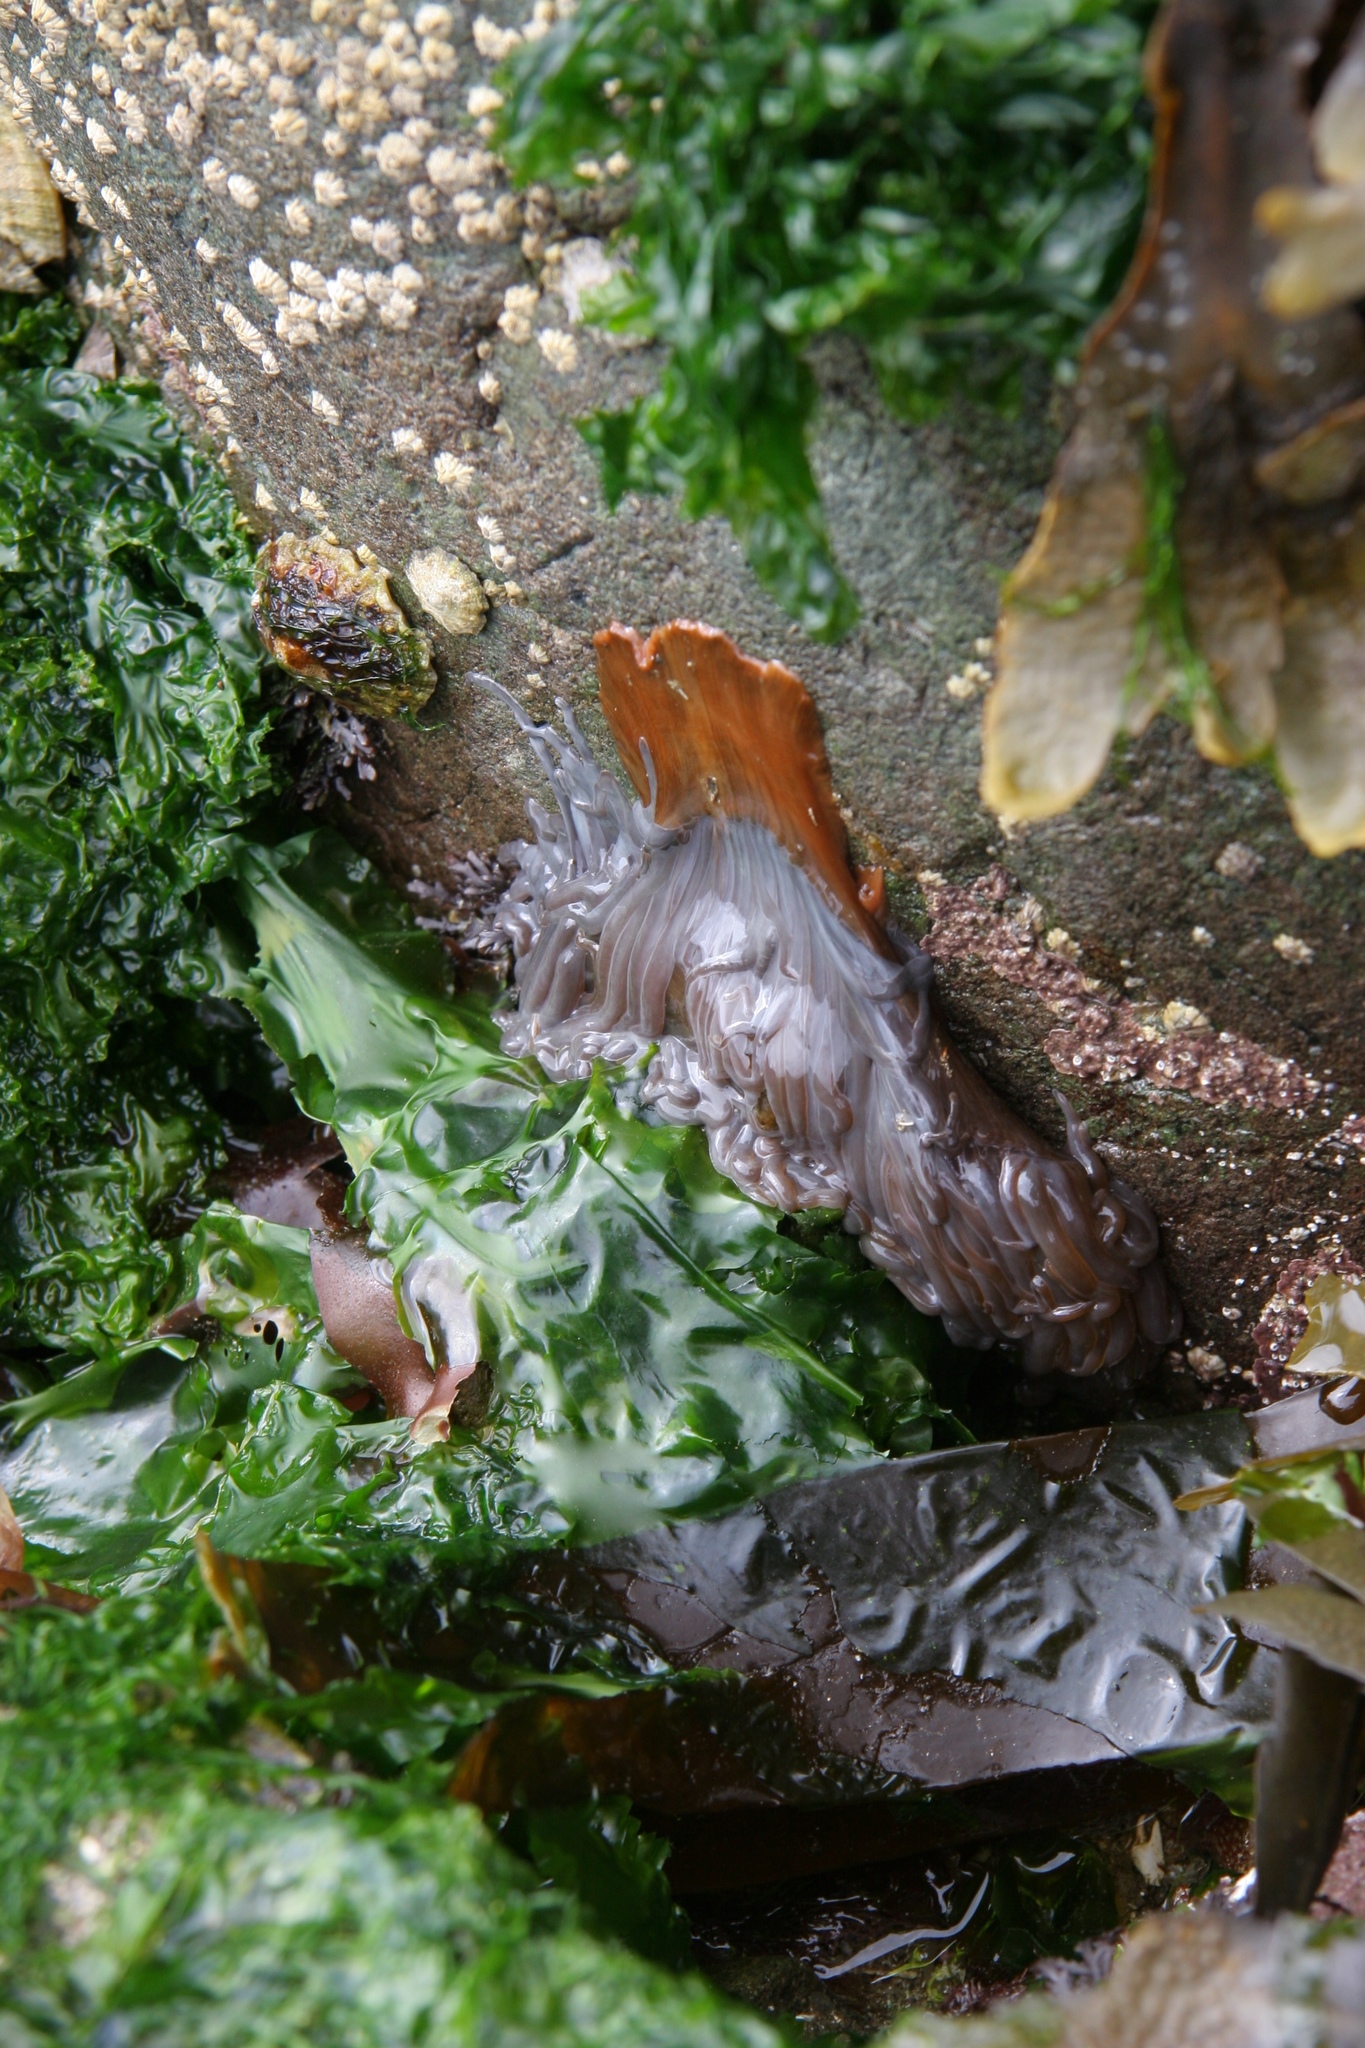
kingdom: Animalia
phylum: Cnidaria
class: Anthozoa
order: Actiniaria
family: Actiniidae
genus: Anemonia
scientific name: Anemonia viridis
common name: Snakelocks anemone
